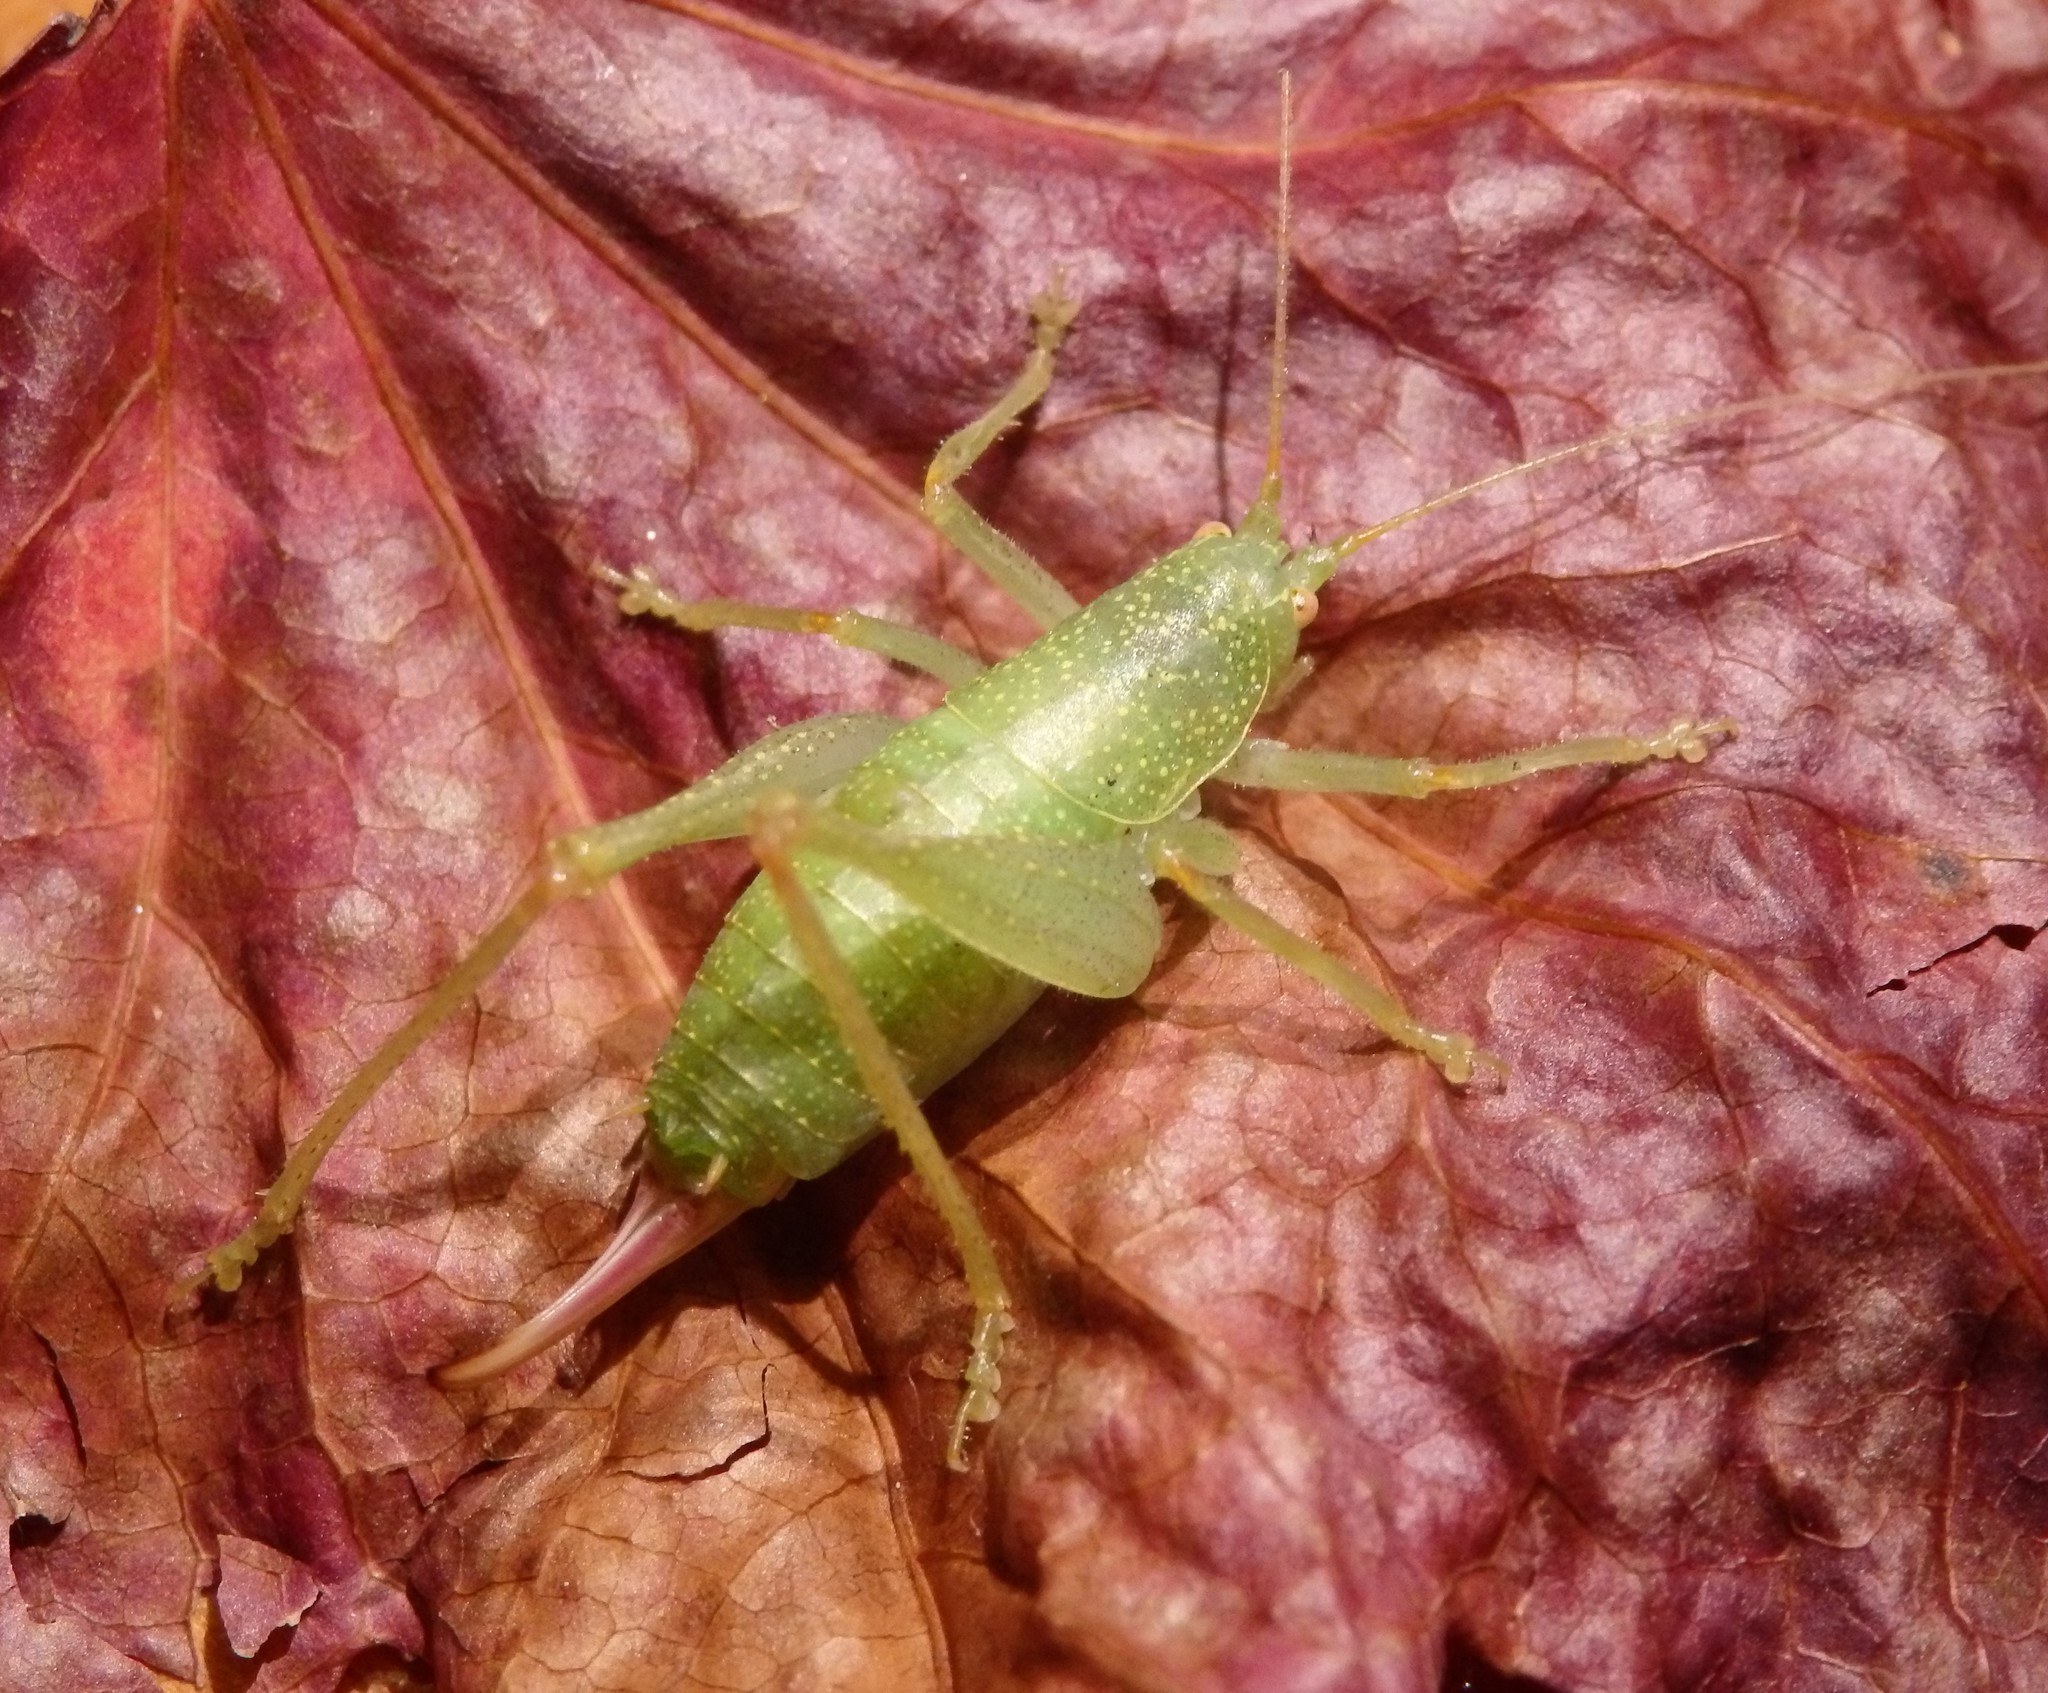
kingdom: Animalia
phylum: Arthropoda
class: Insecta
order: Orthoptera
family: Tettigoniidae
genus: Cyrtaspis
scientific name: Cyrtaspis scutata
